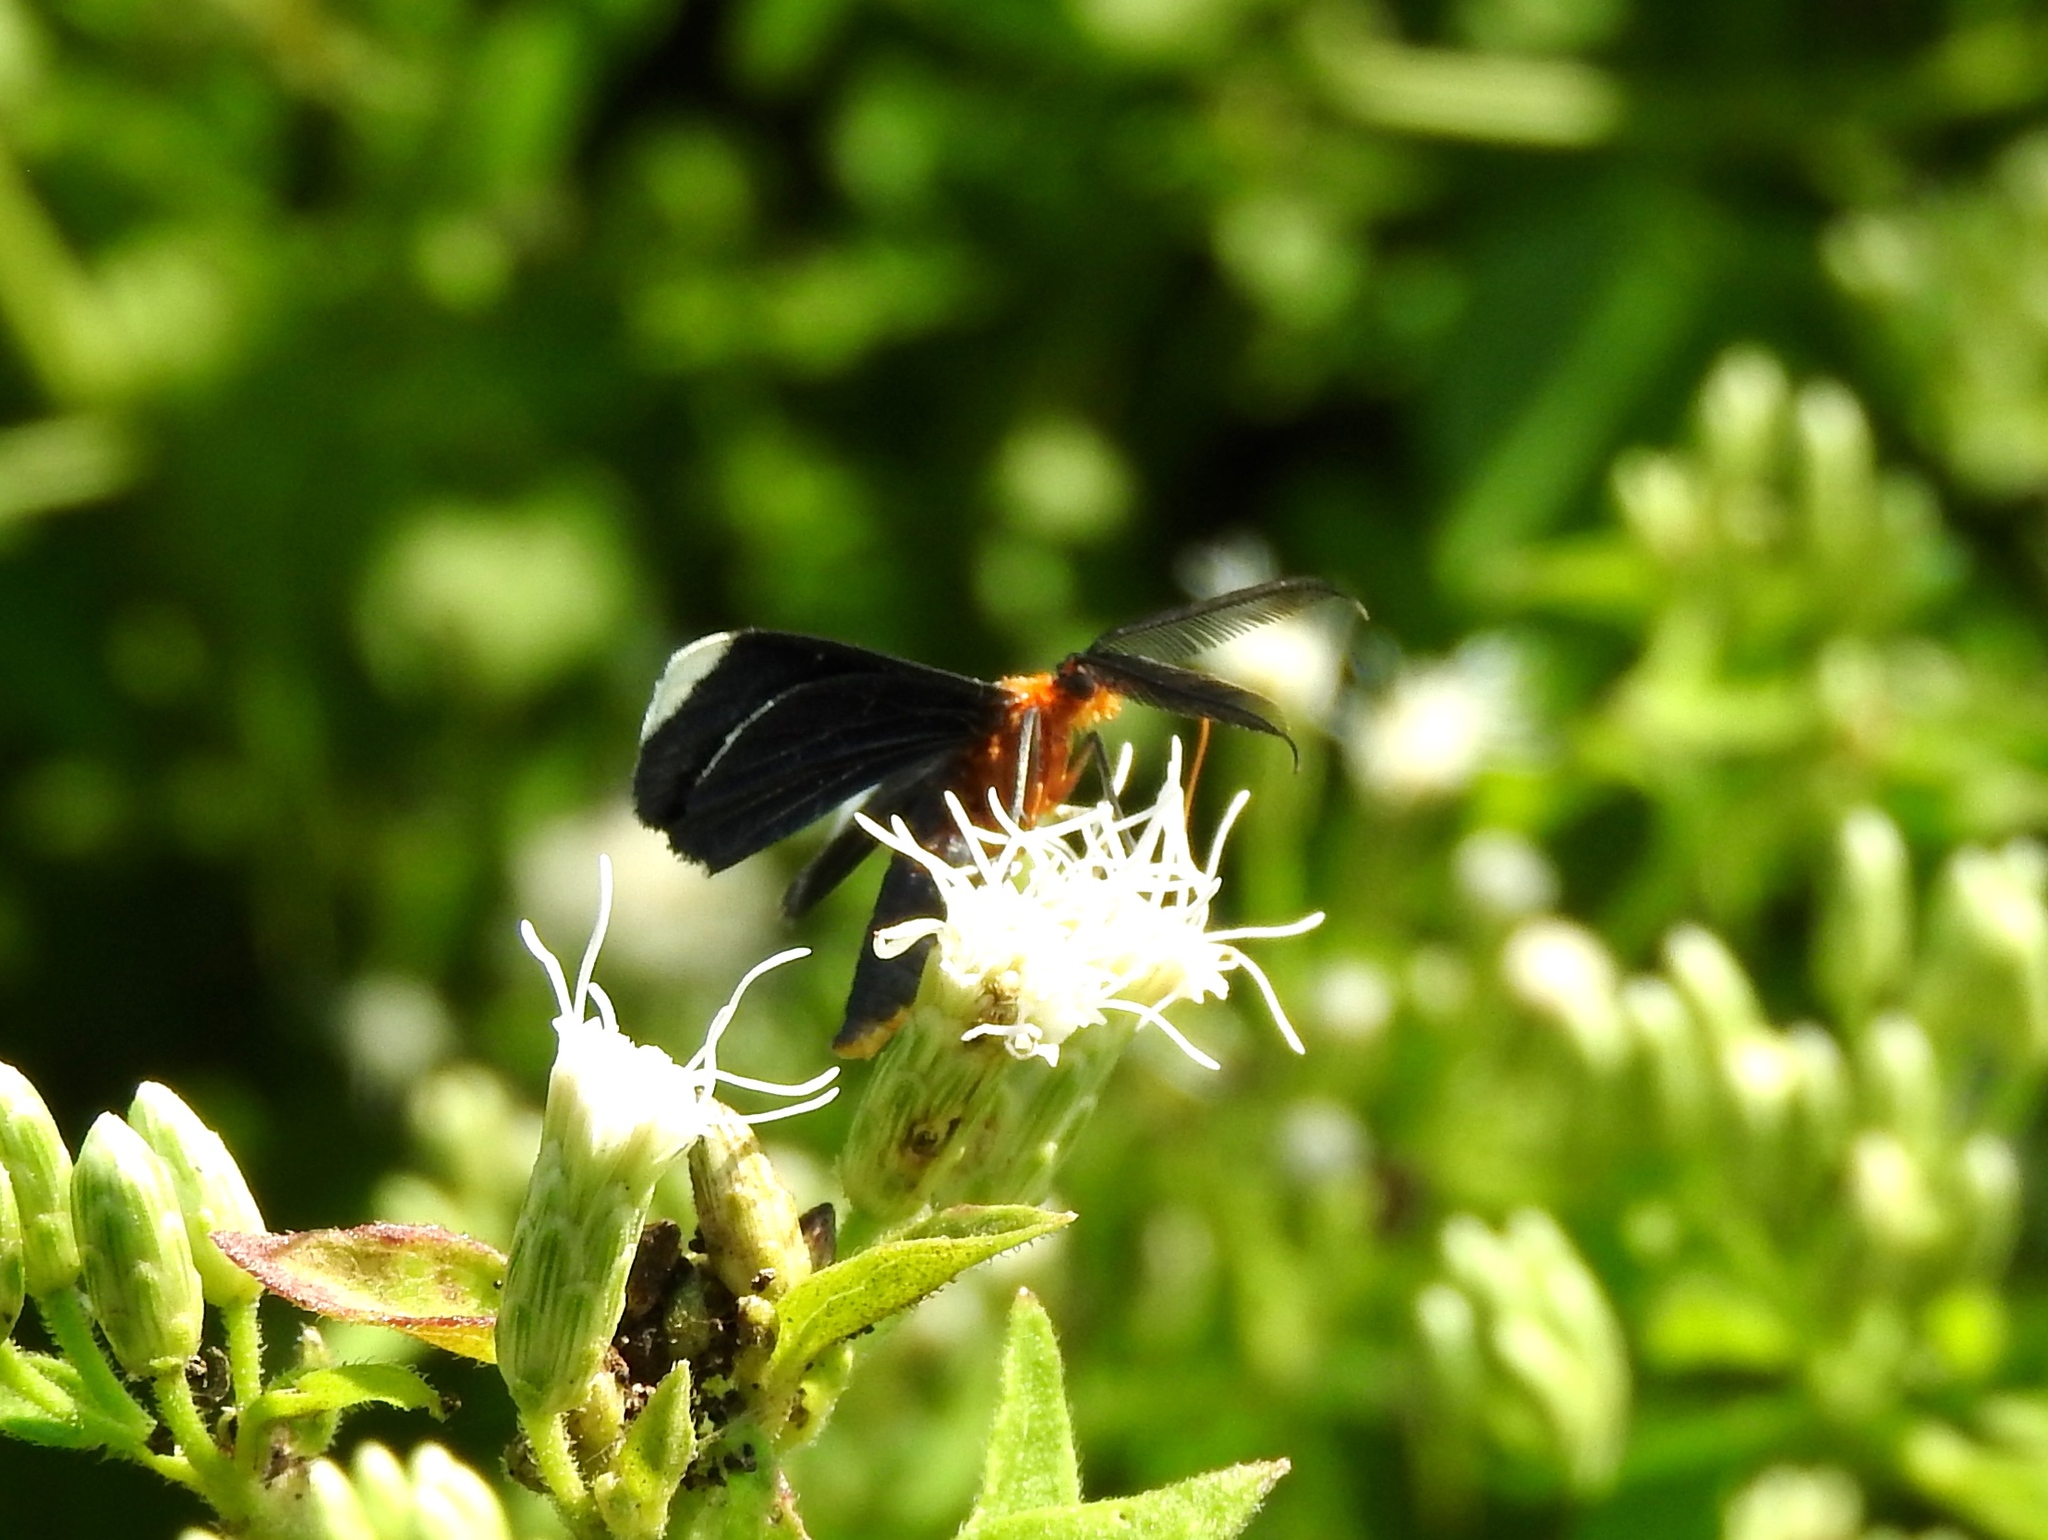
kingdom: Animalia
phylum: Arthropoda
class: Insecta
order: Lepidoptera
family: Geometridae
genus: Melanchroia
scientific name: Melanchroia chephise
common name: White-tipped black
